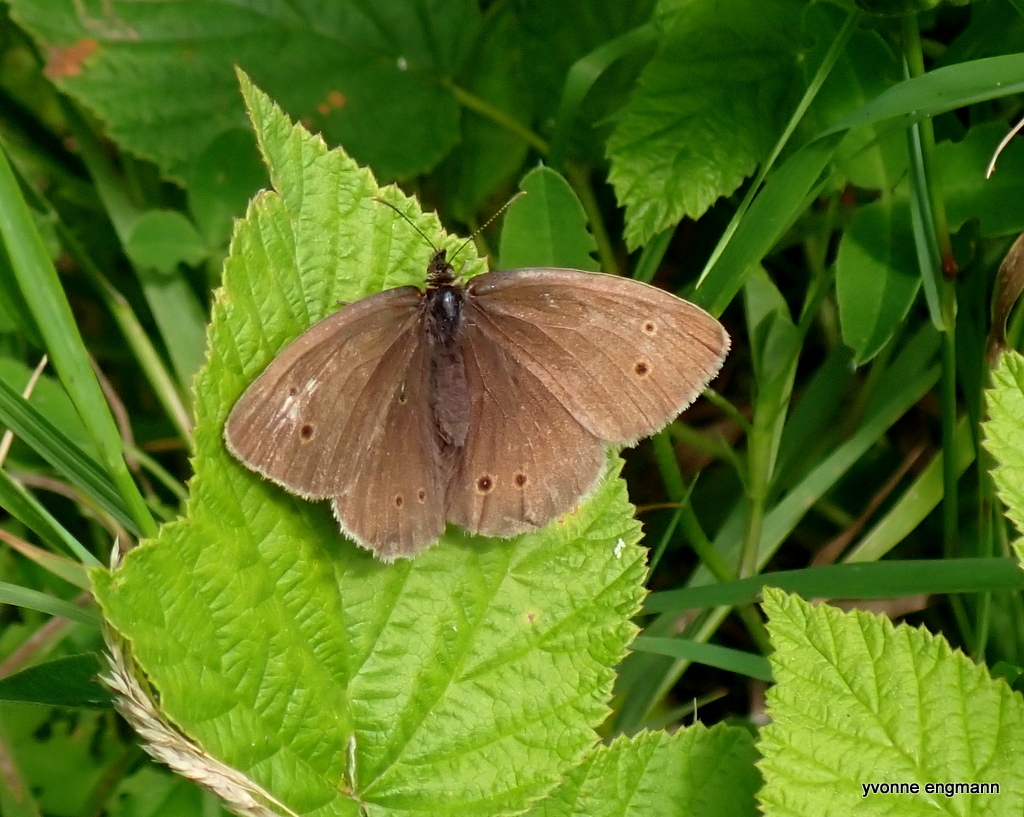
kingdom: Animalia
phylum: Arthropoda
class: Insecta
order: Lepidoptera
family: Nymphalidae
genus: Aphantopus
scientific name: Aphantopus hyperantus
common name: Ringlet
